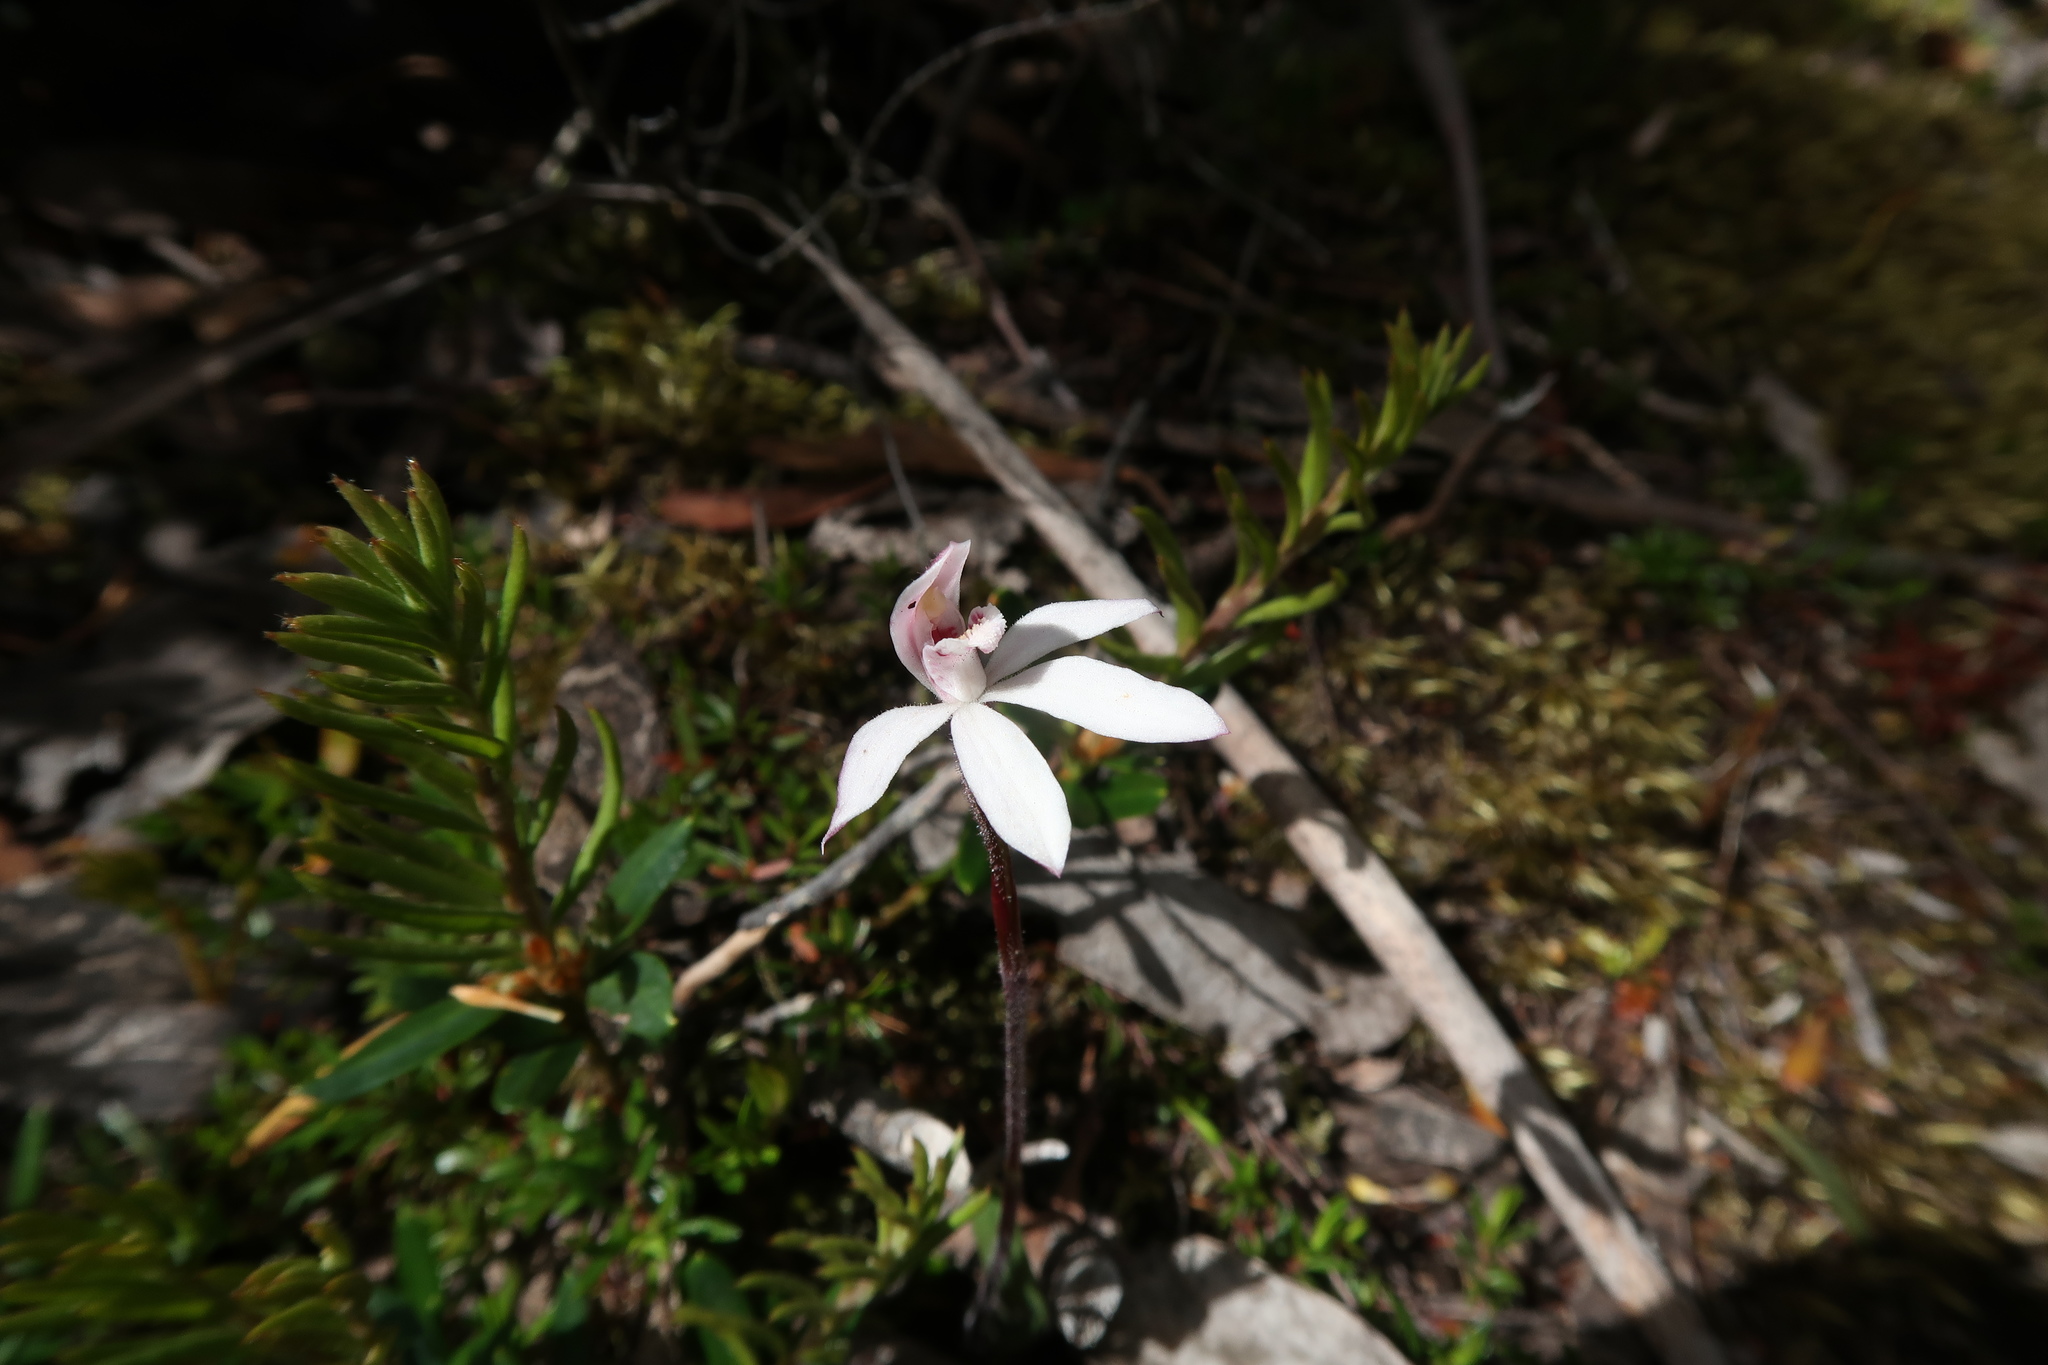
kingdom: Plantae
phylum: Tracheophyta
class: Liliopsida
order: Asparagales
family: Orchidaceae
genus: Caladenia
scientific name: Caladenia alpina
